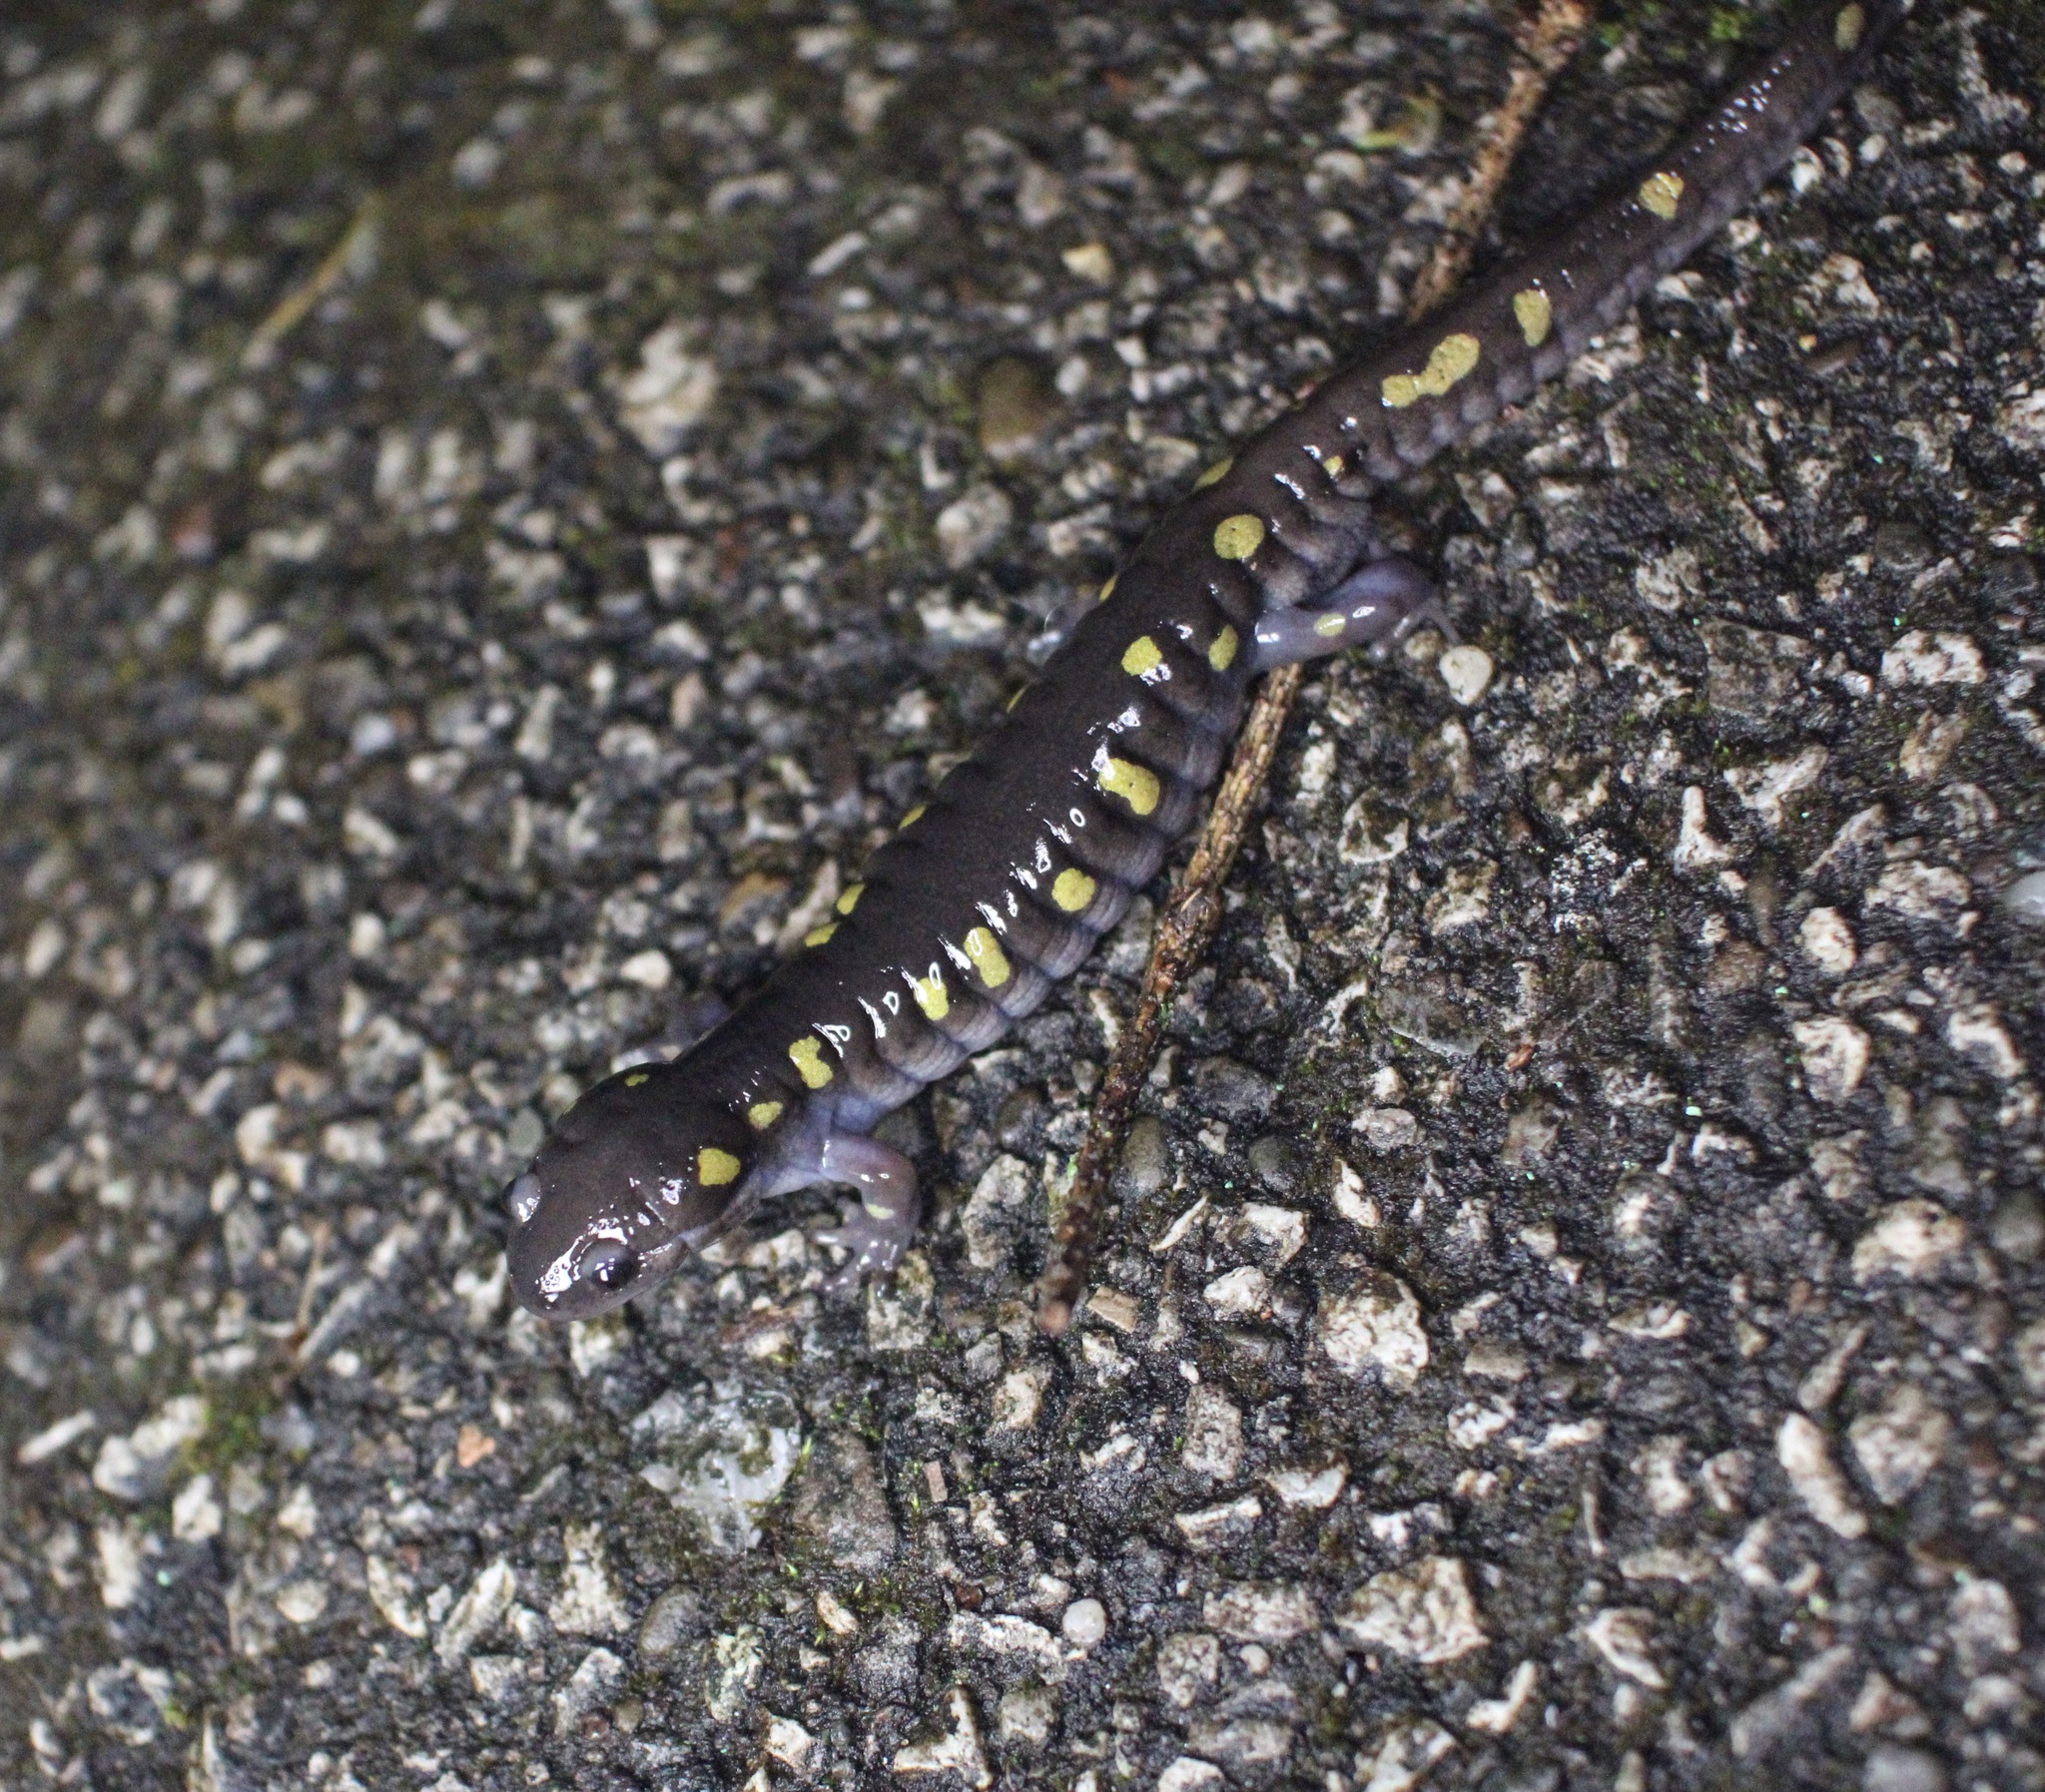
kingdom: Animalia
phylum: Chordata
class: Amphibia
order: Caudata
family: Ambystomatidae
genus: Ambystoma
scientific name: Ambystoma maculatum
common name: Spotted salamander
